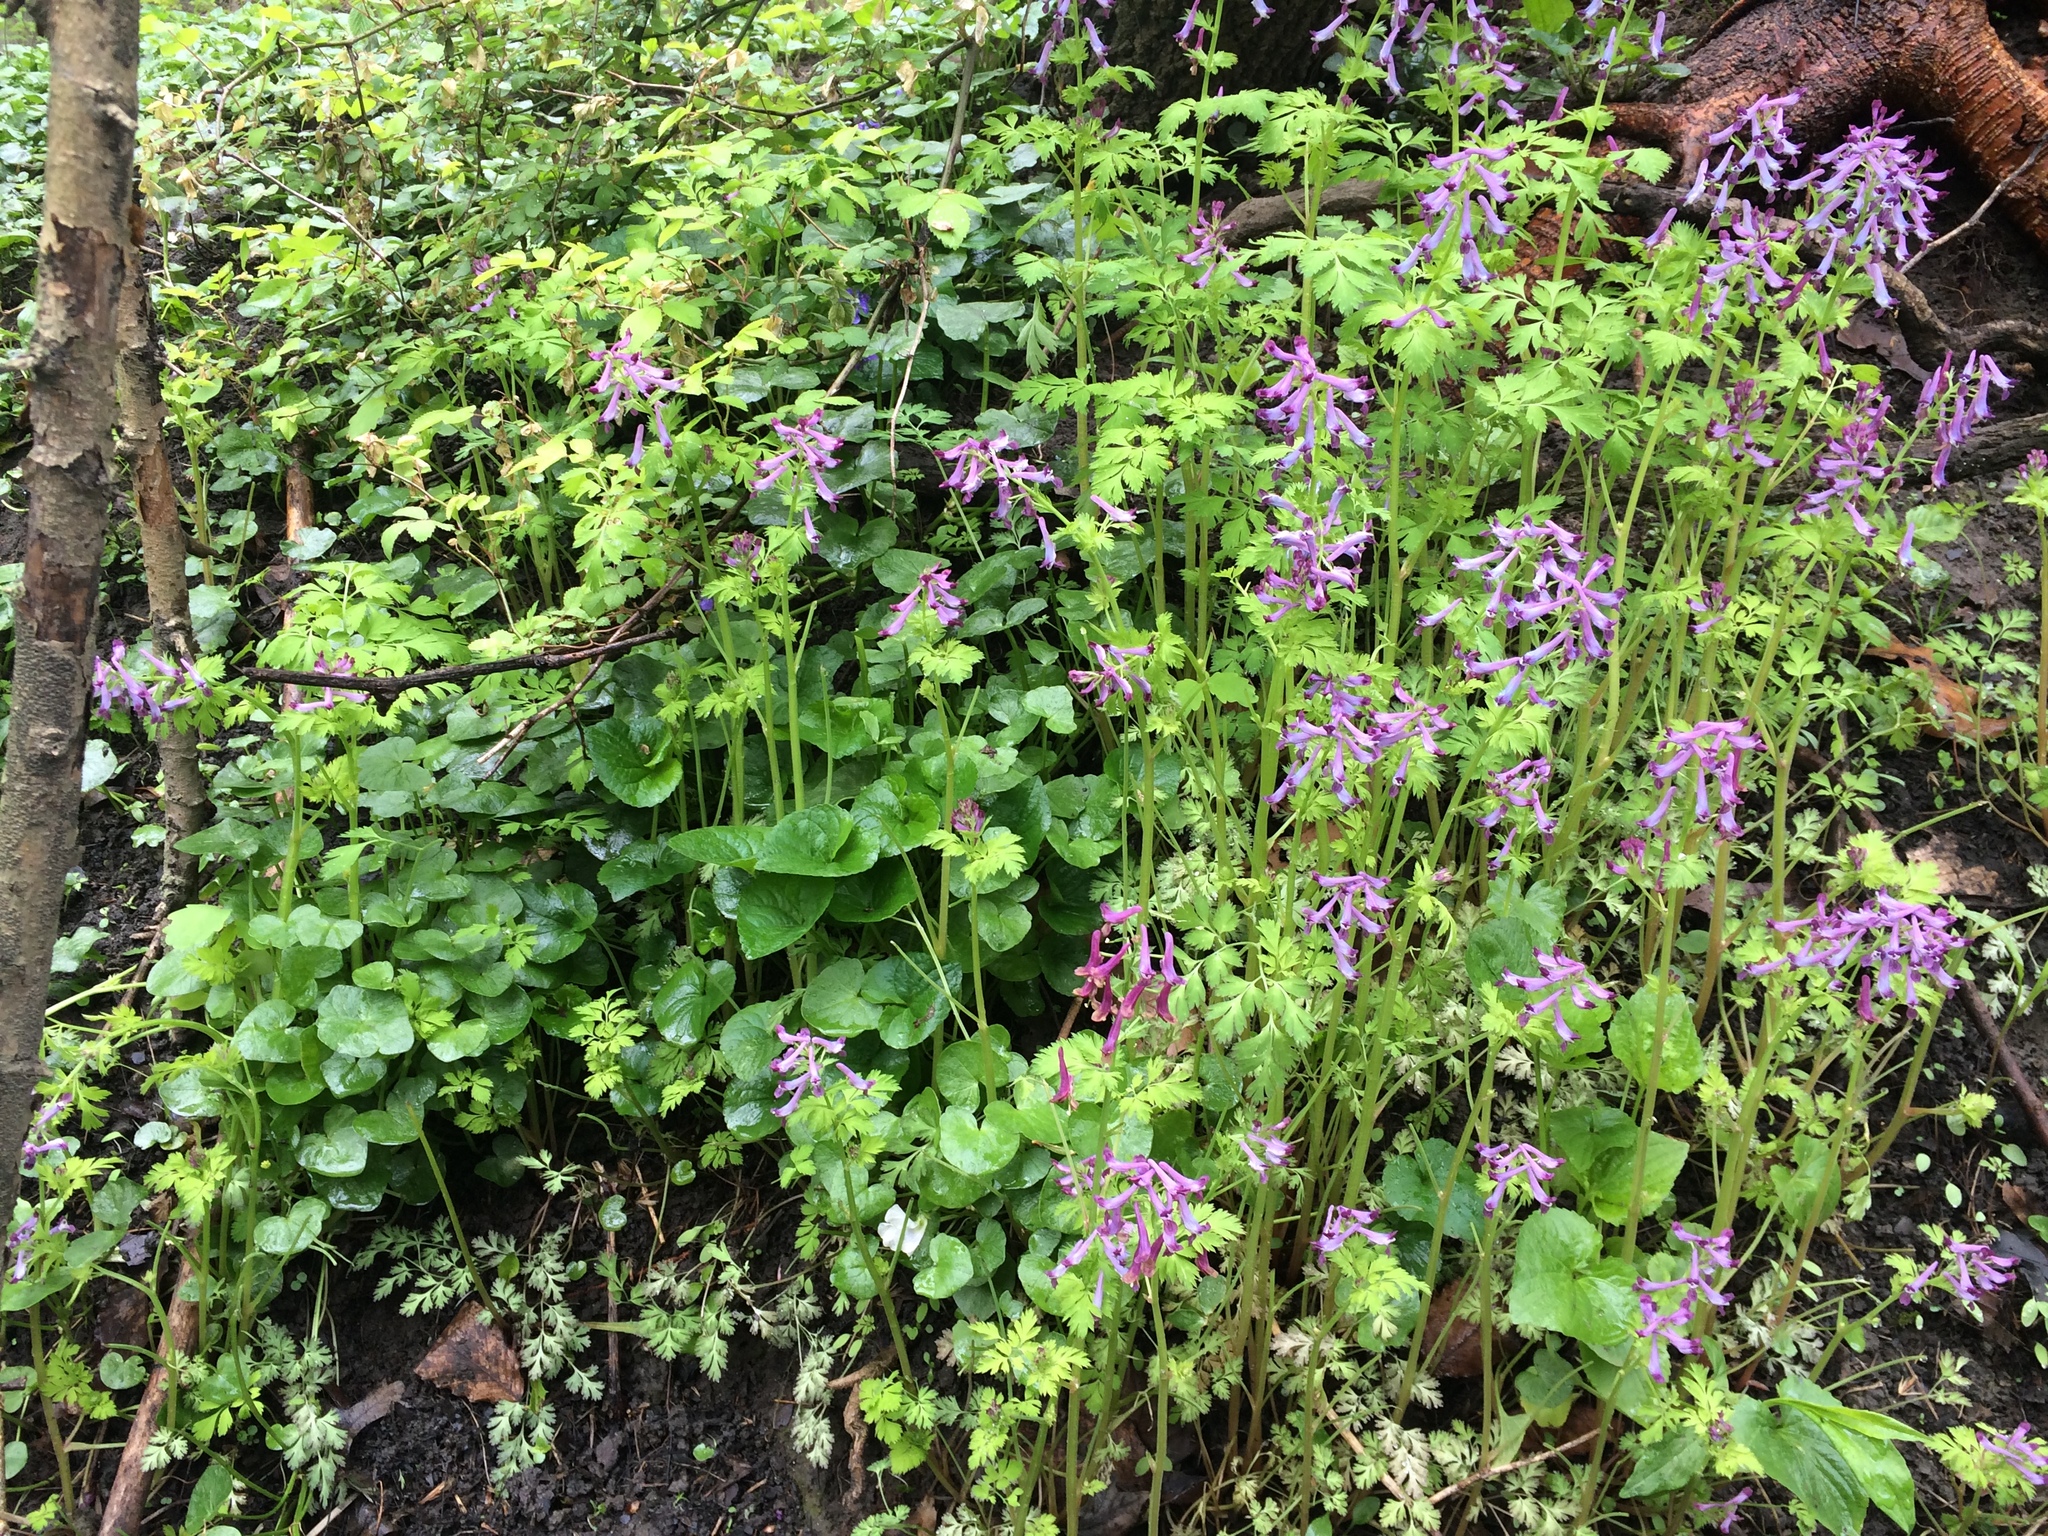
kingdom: Plantae
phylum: Tracheophyta
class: Magnoliopsida
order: Ranunculales
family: Papaveraceae
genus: Corydalis
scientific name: Corydalis incisa
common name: Incised fumewort
